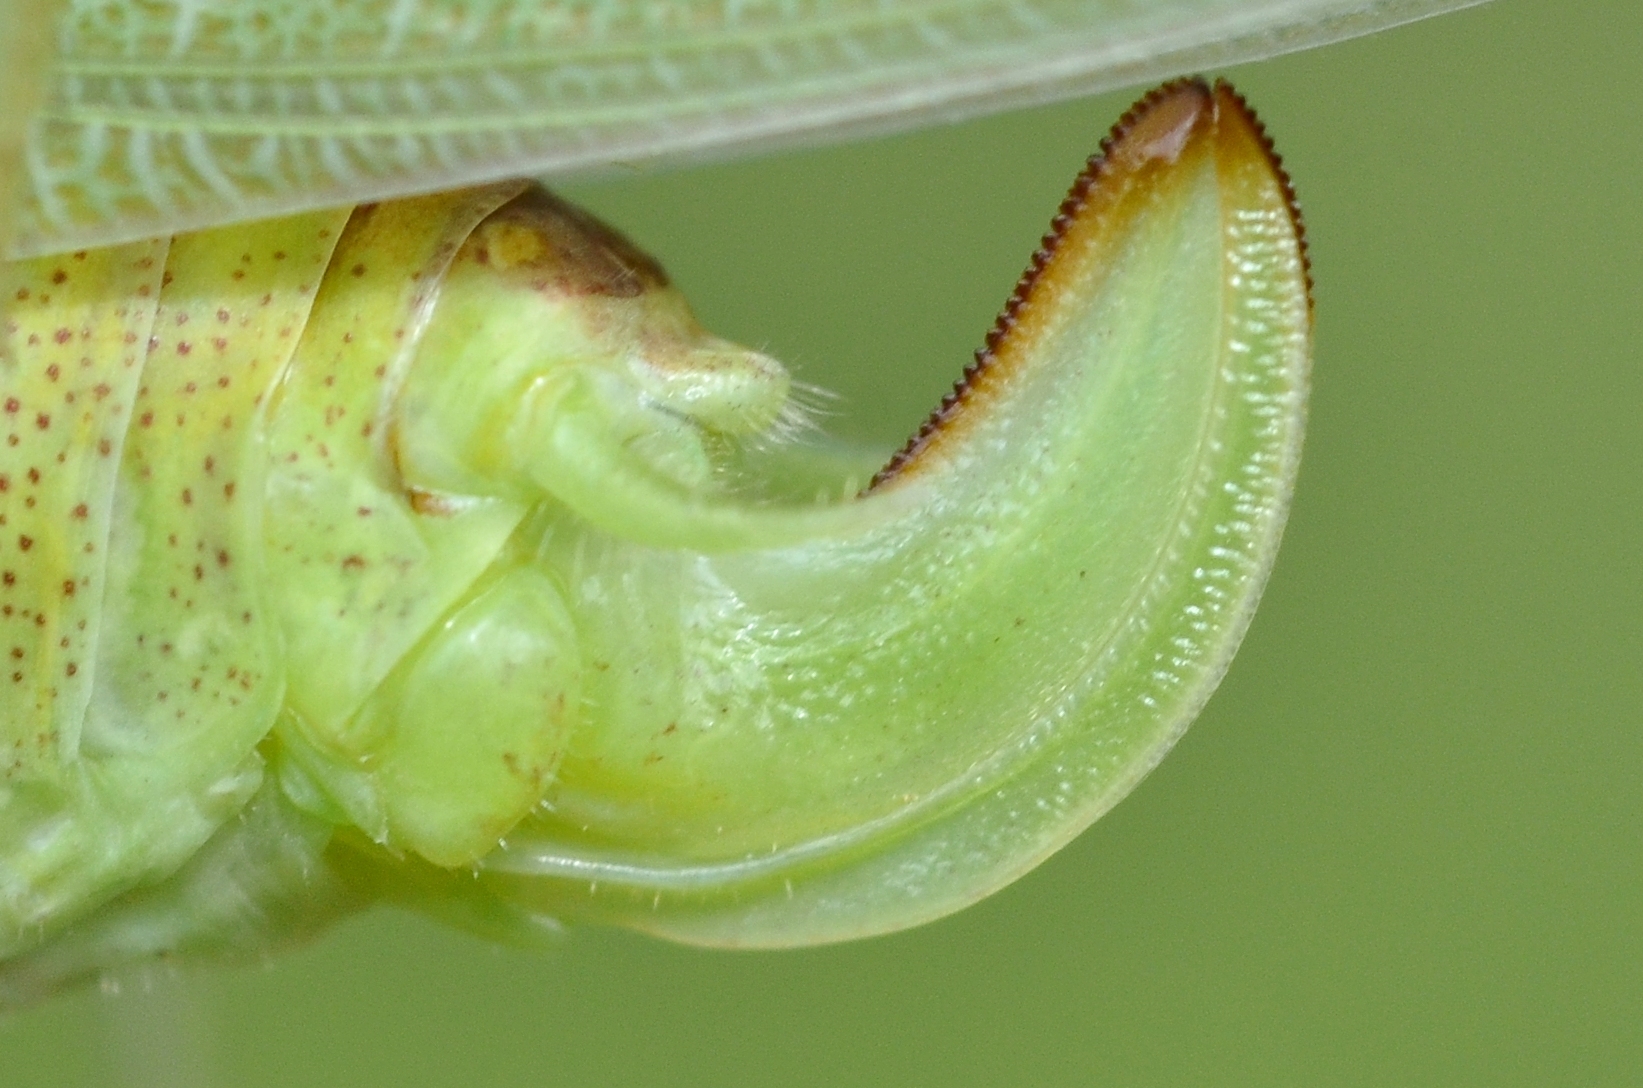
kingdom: Animalia
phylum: Arthropoda
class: Insecta
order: Orthoptera
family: Tettigoniidae
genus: Phaneroptera
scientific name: Phaneroptera nana
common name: Southern sickle bush-cricket
